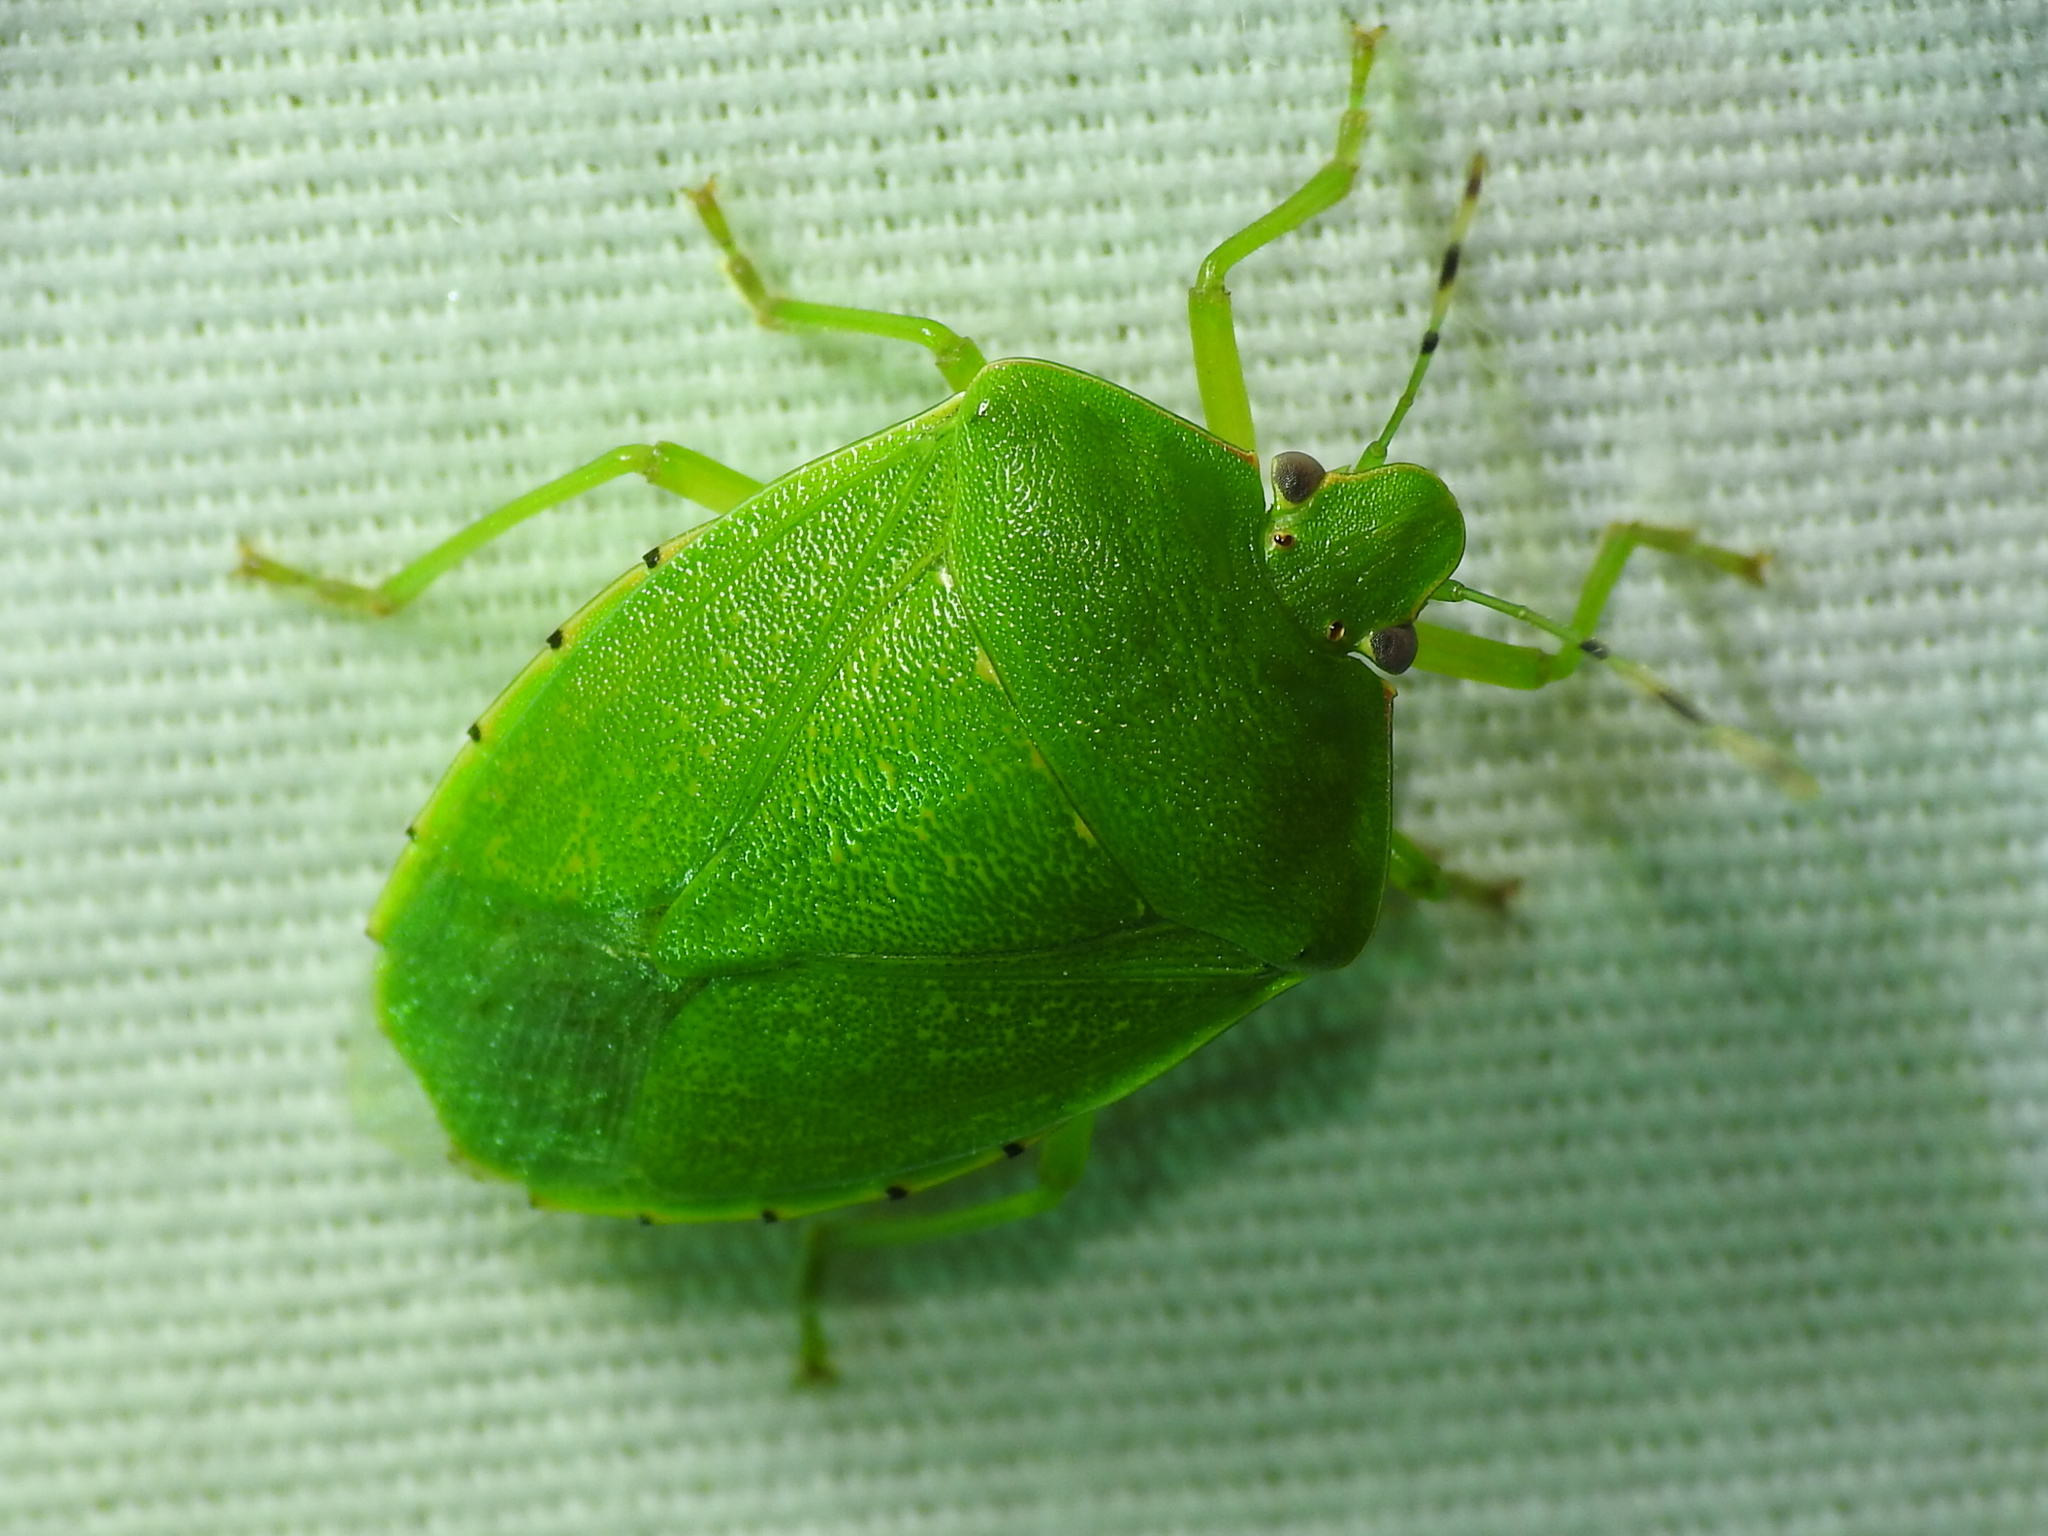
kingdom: Animalia
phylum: Arthropoda
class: Insecta
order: Hemiptera
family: Pentatomidae
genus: Chinavia
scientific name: Chinavia hilaris
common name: Green stink bug
